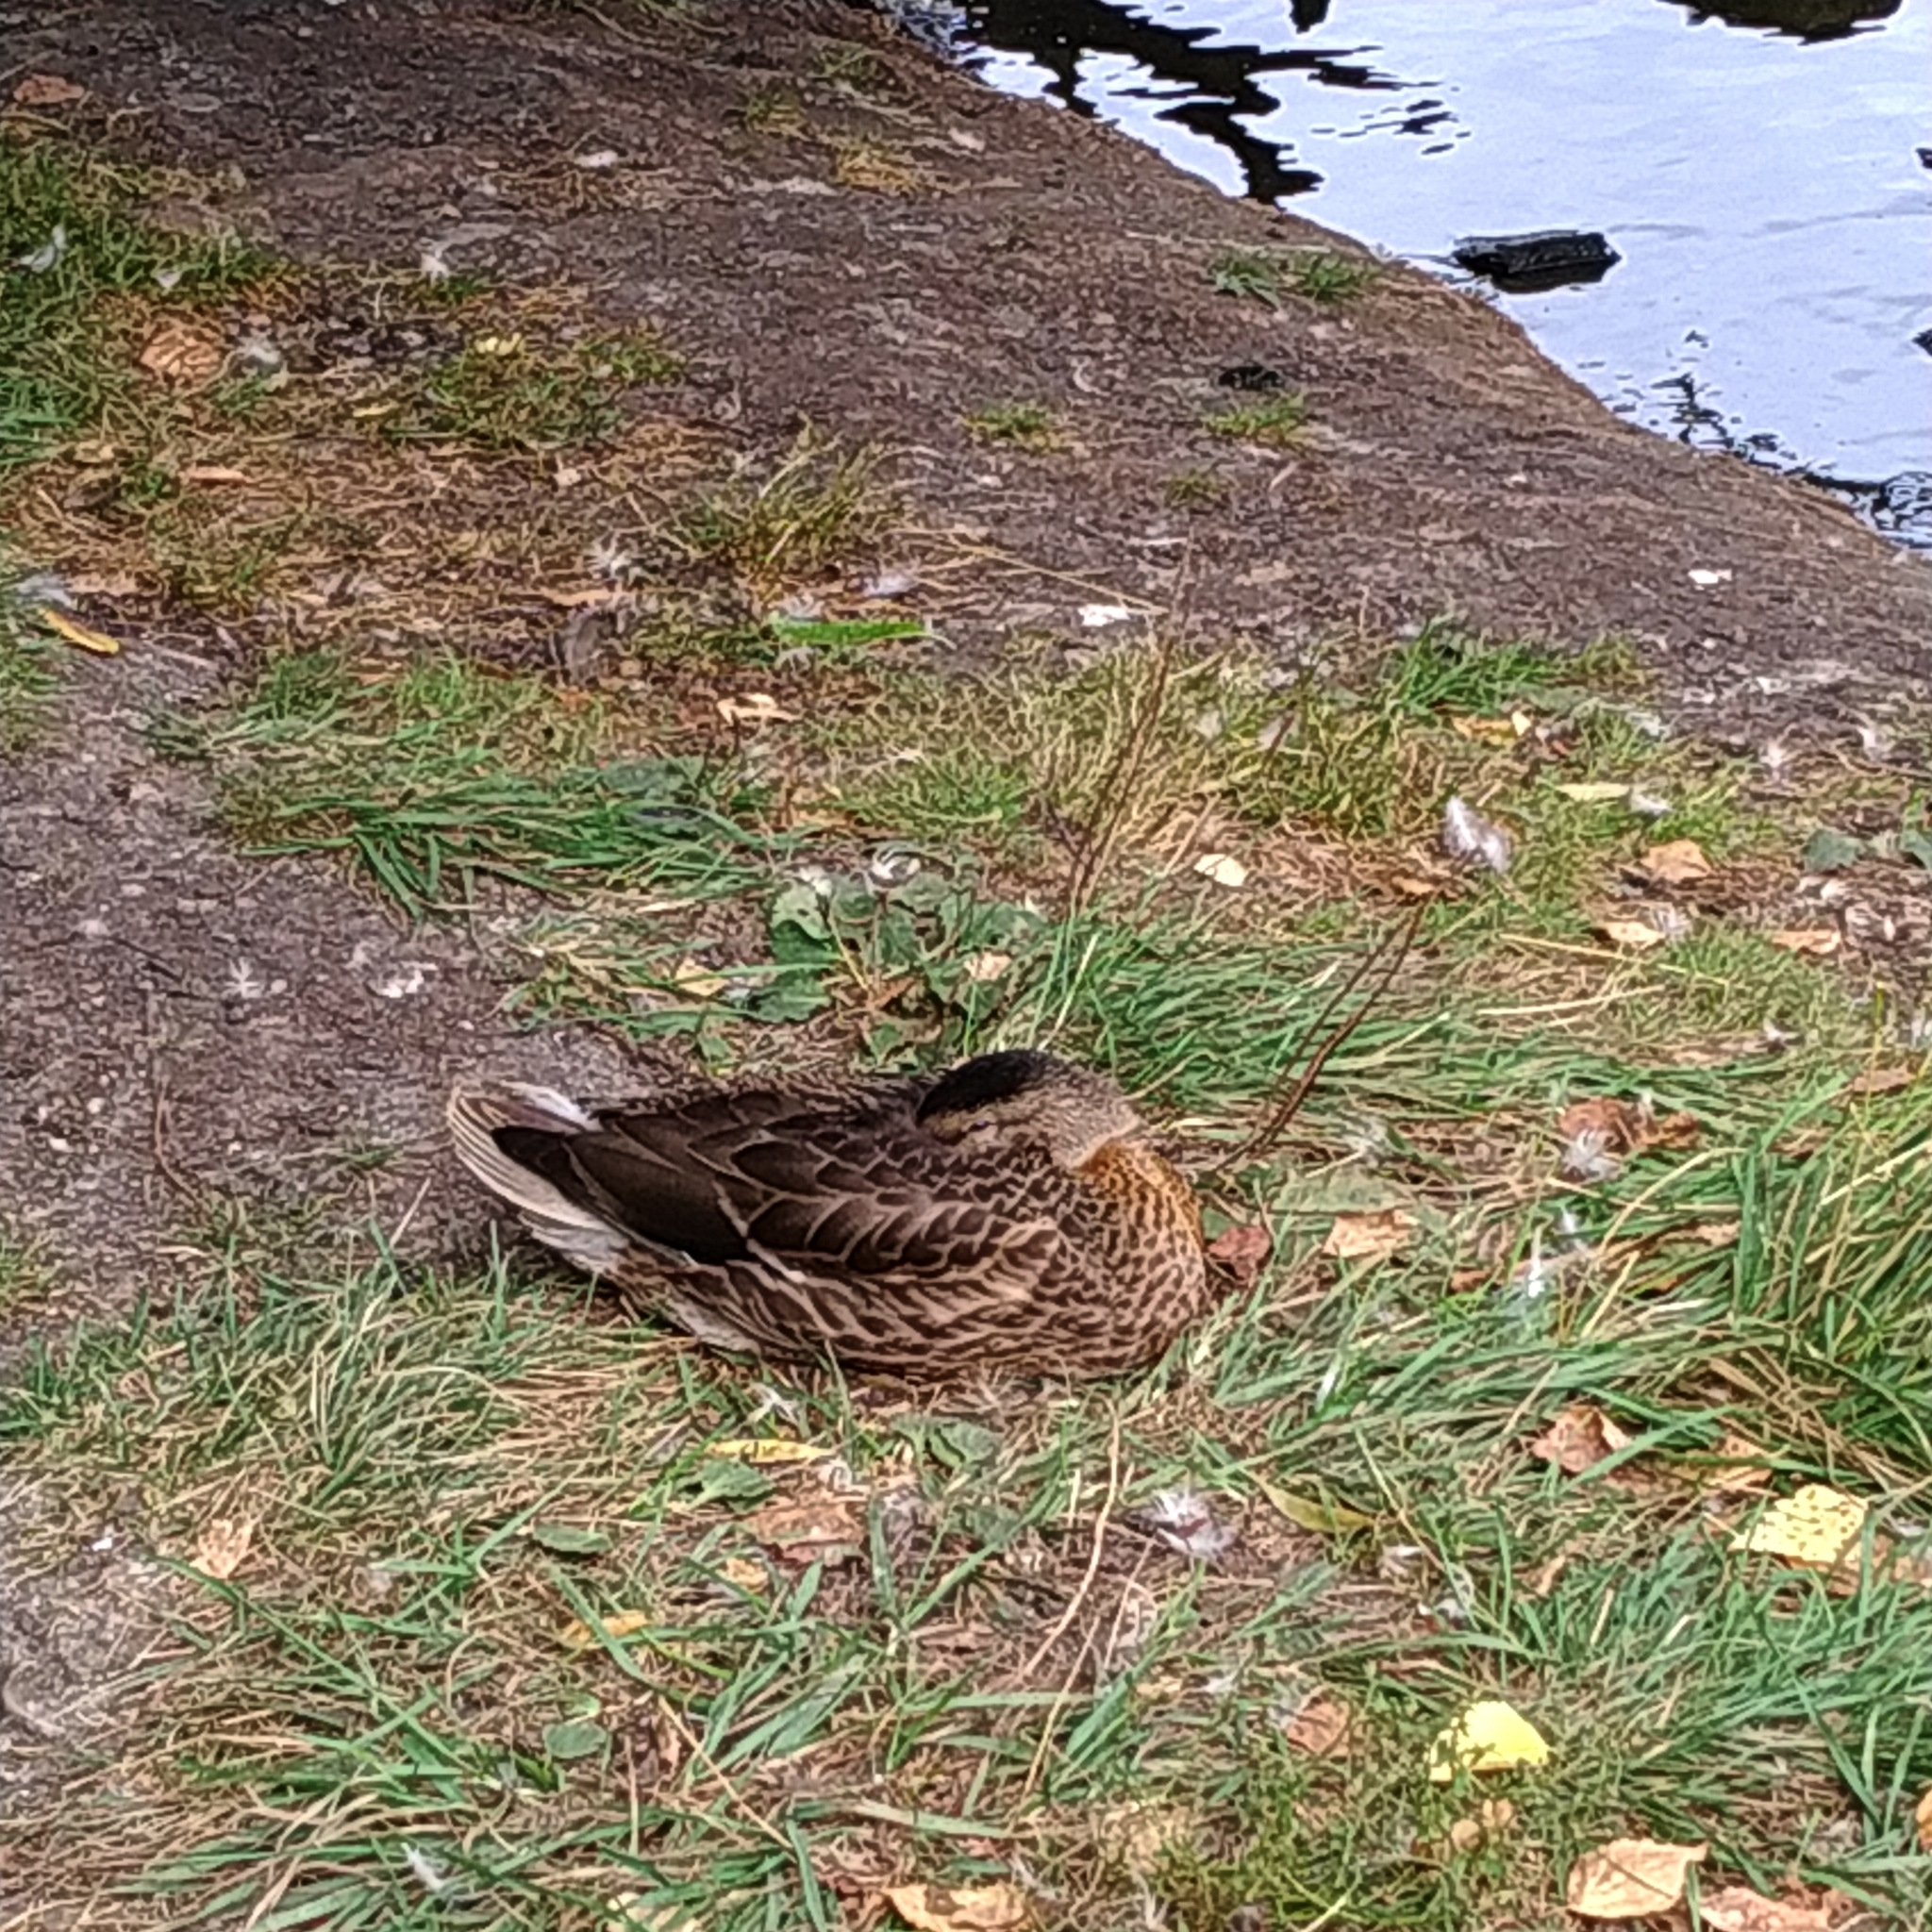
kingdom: Animalia
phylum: Chordata
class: Aves
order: Anseriformes
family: Anatidae
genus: Anas
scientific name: Anas platyrhynchos
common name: Mallard
